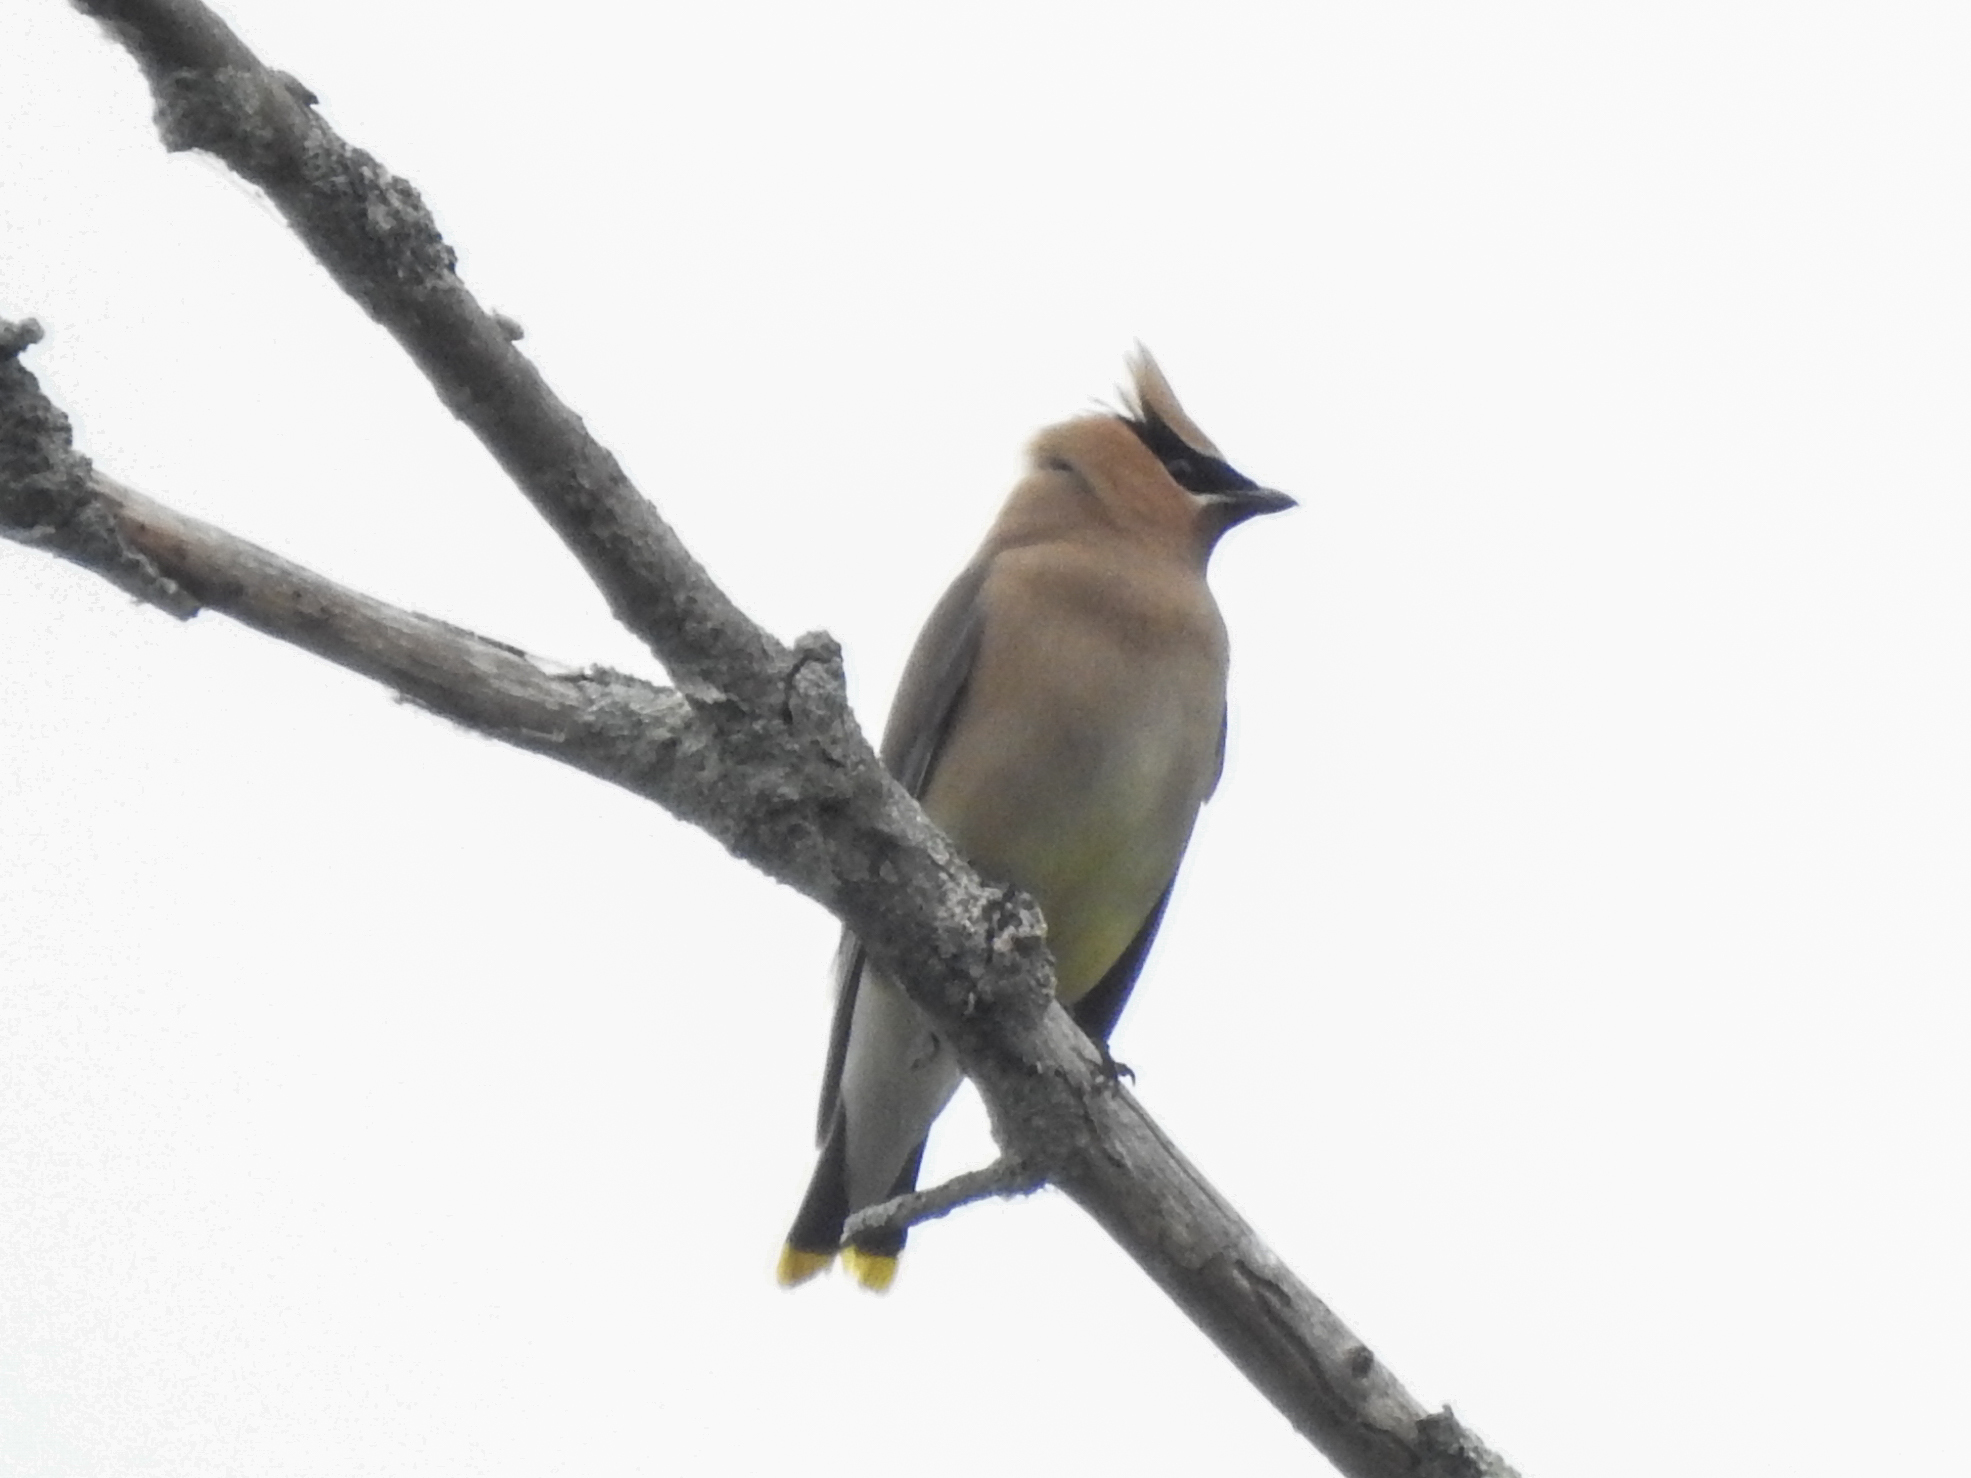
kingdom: Animalia
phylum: Chordata
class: Aves
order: Passeriformes
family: Bombycillidae
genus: Bombycilla
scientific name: Bombycilla cedrorum
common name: Cedar waxwing
